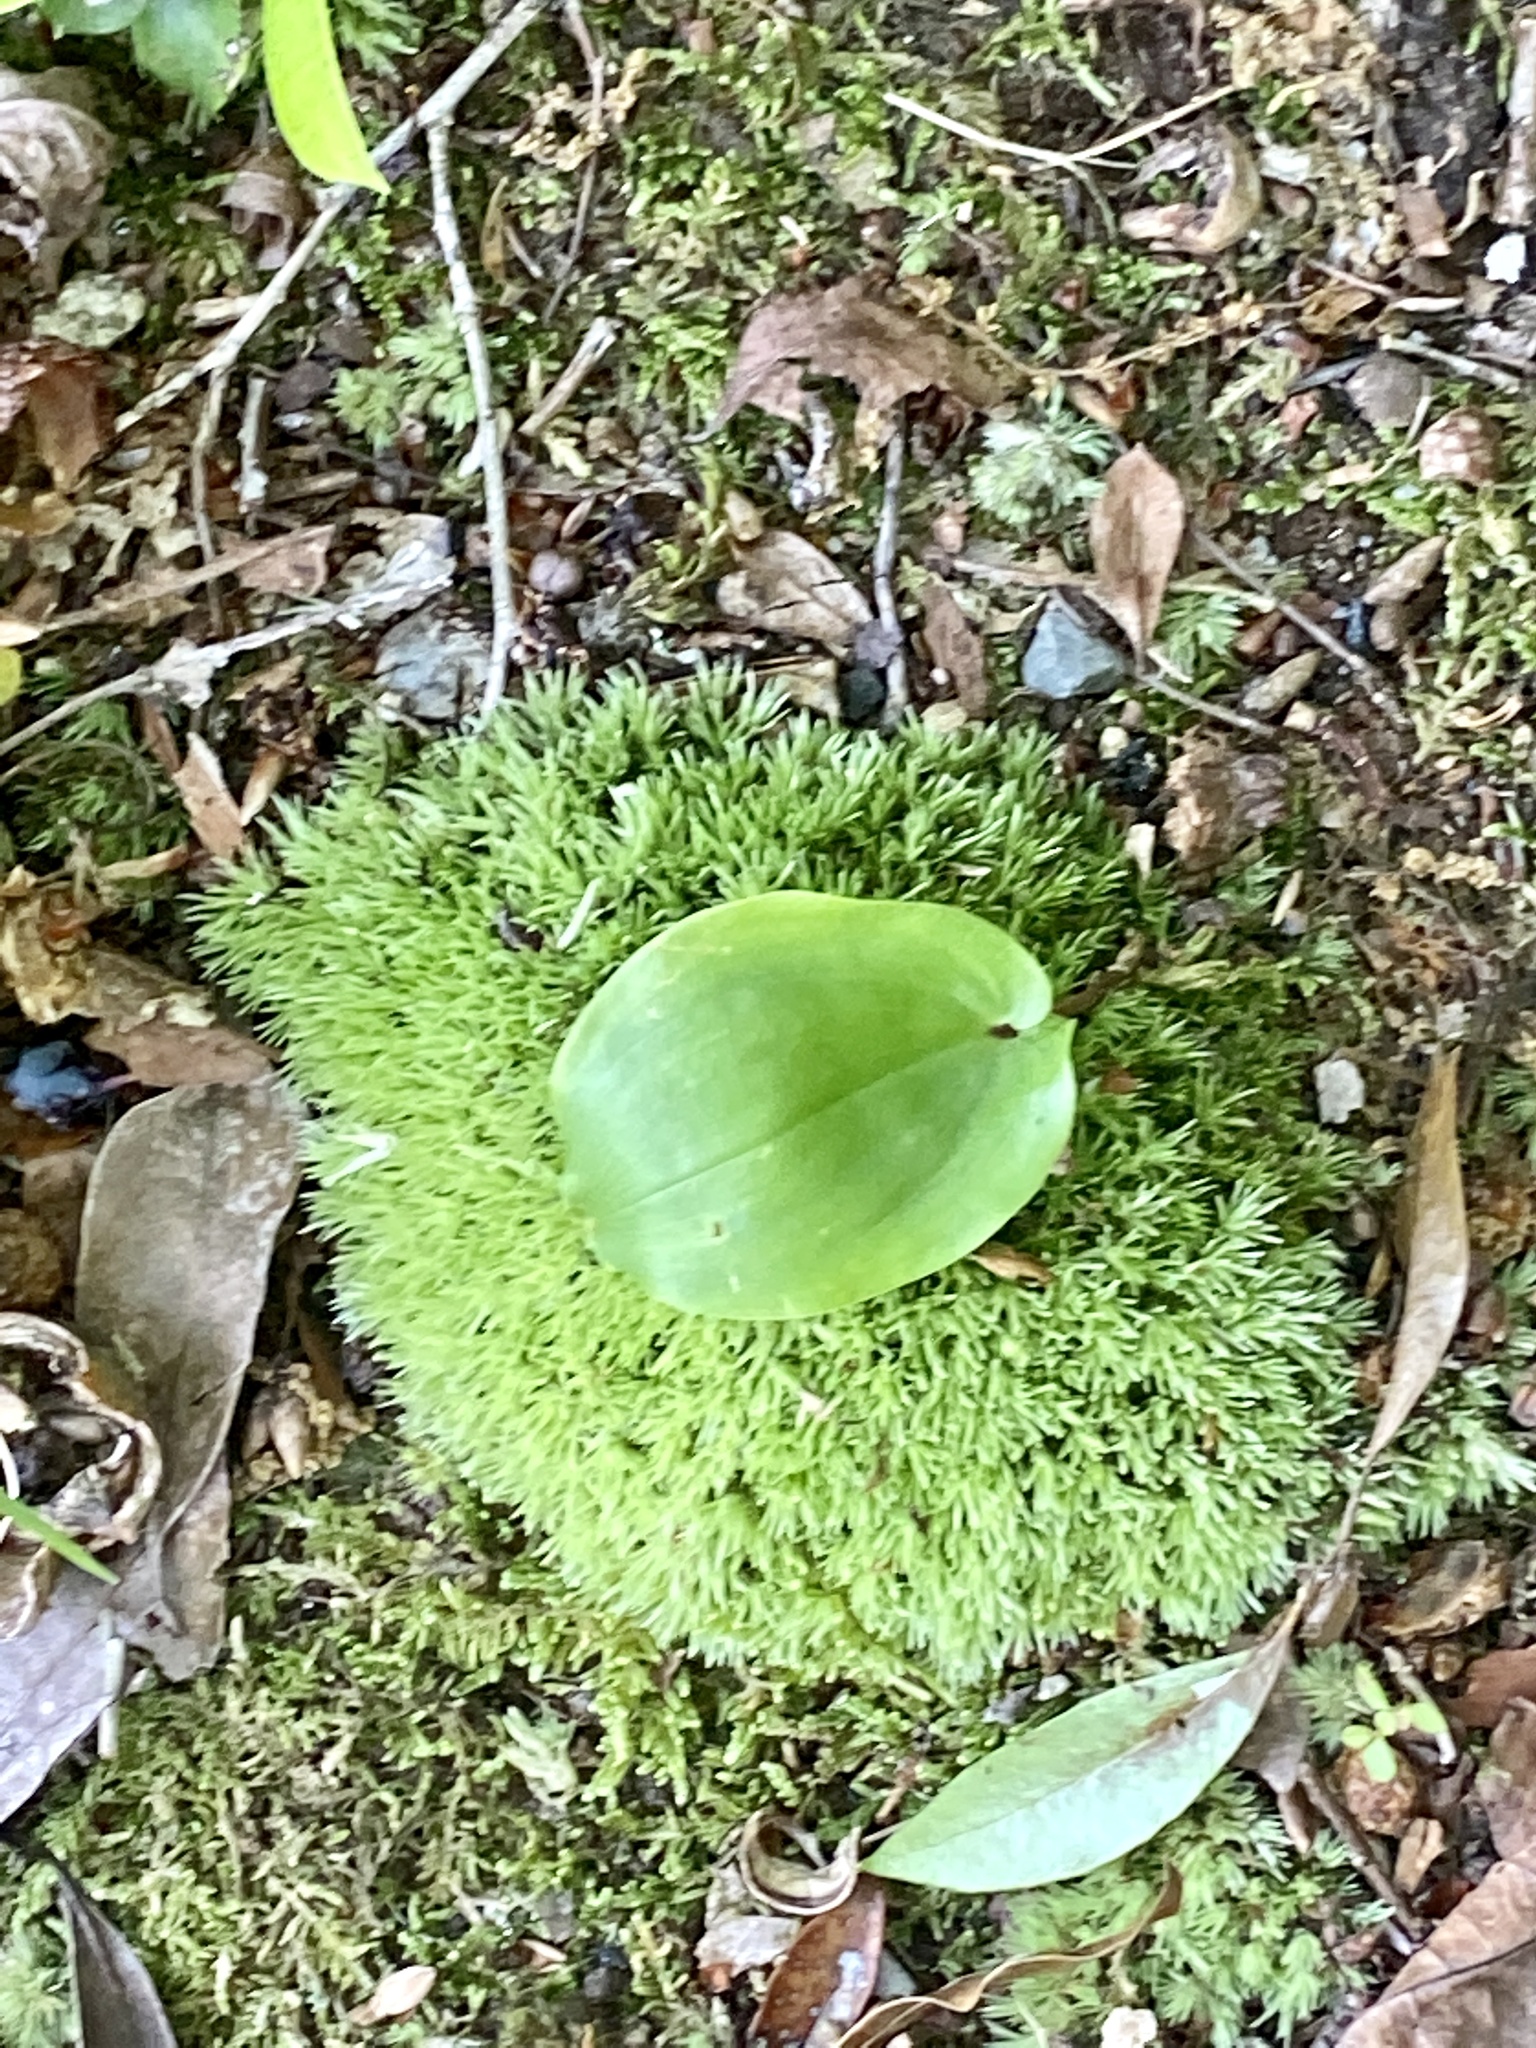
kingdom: Plantae
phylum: Tracheophyta
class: Liliopsida
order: Asparagales
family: Asparagaceae
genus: Maianthemum
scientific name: Maianthemum canadense
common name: False lily-of-the-valley
